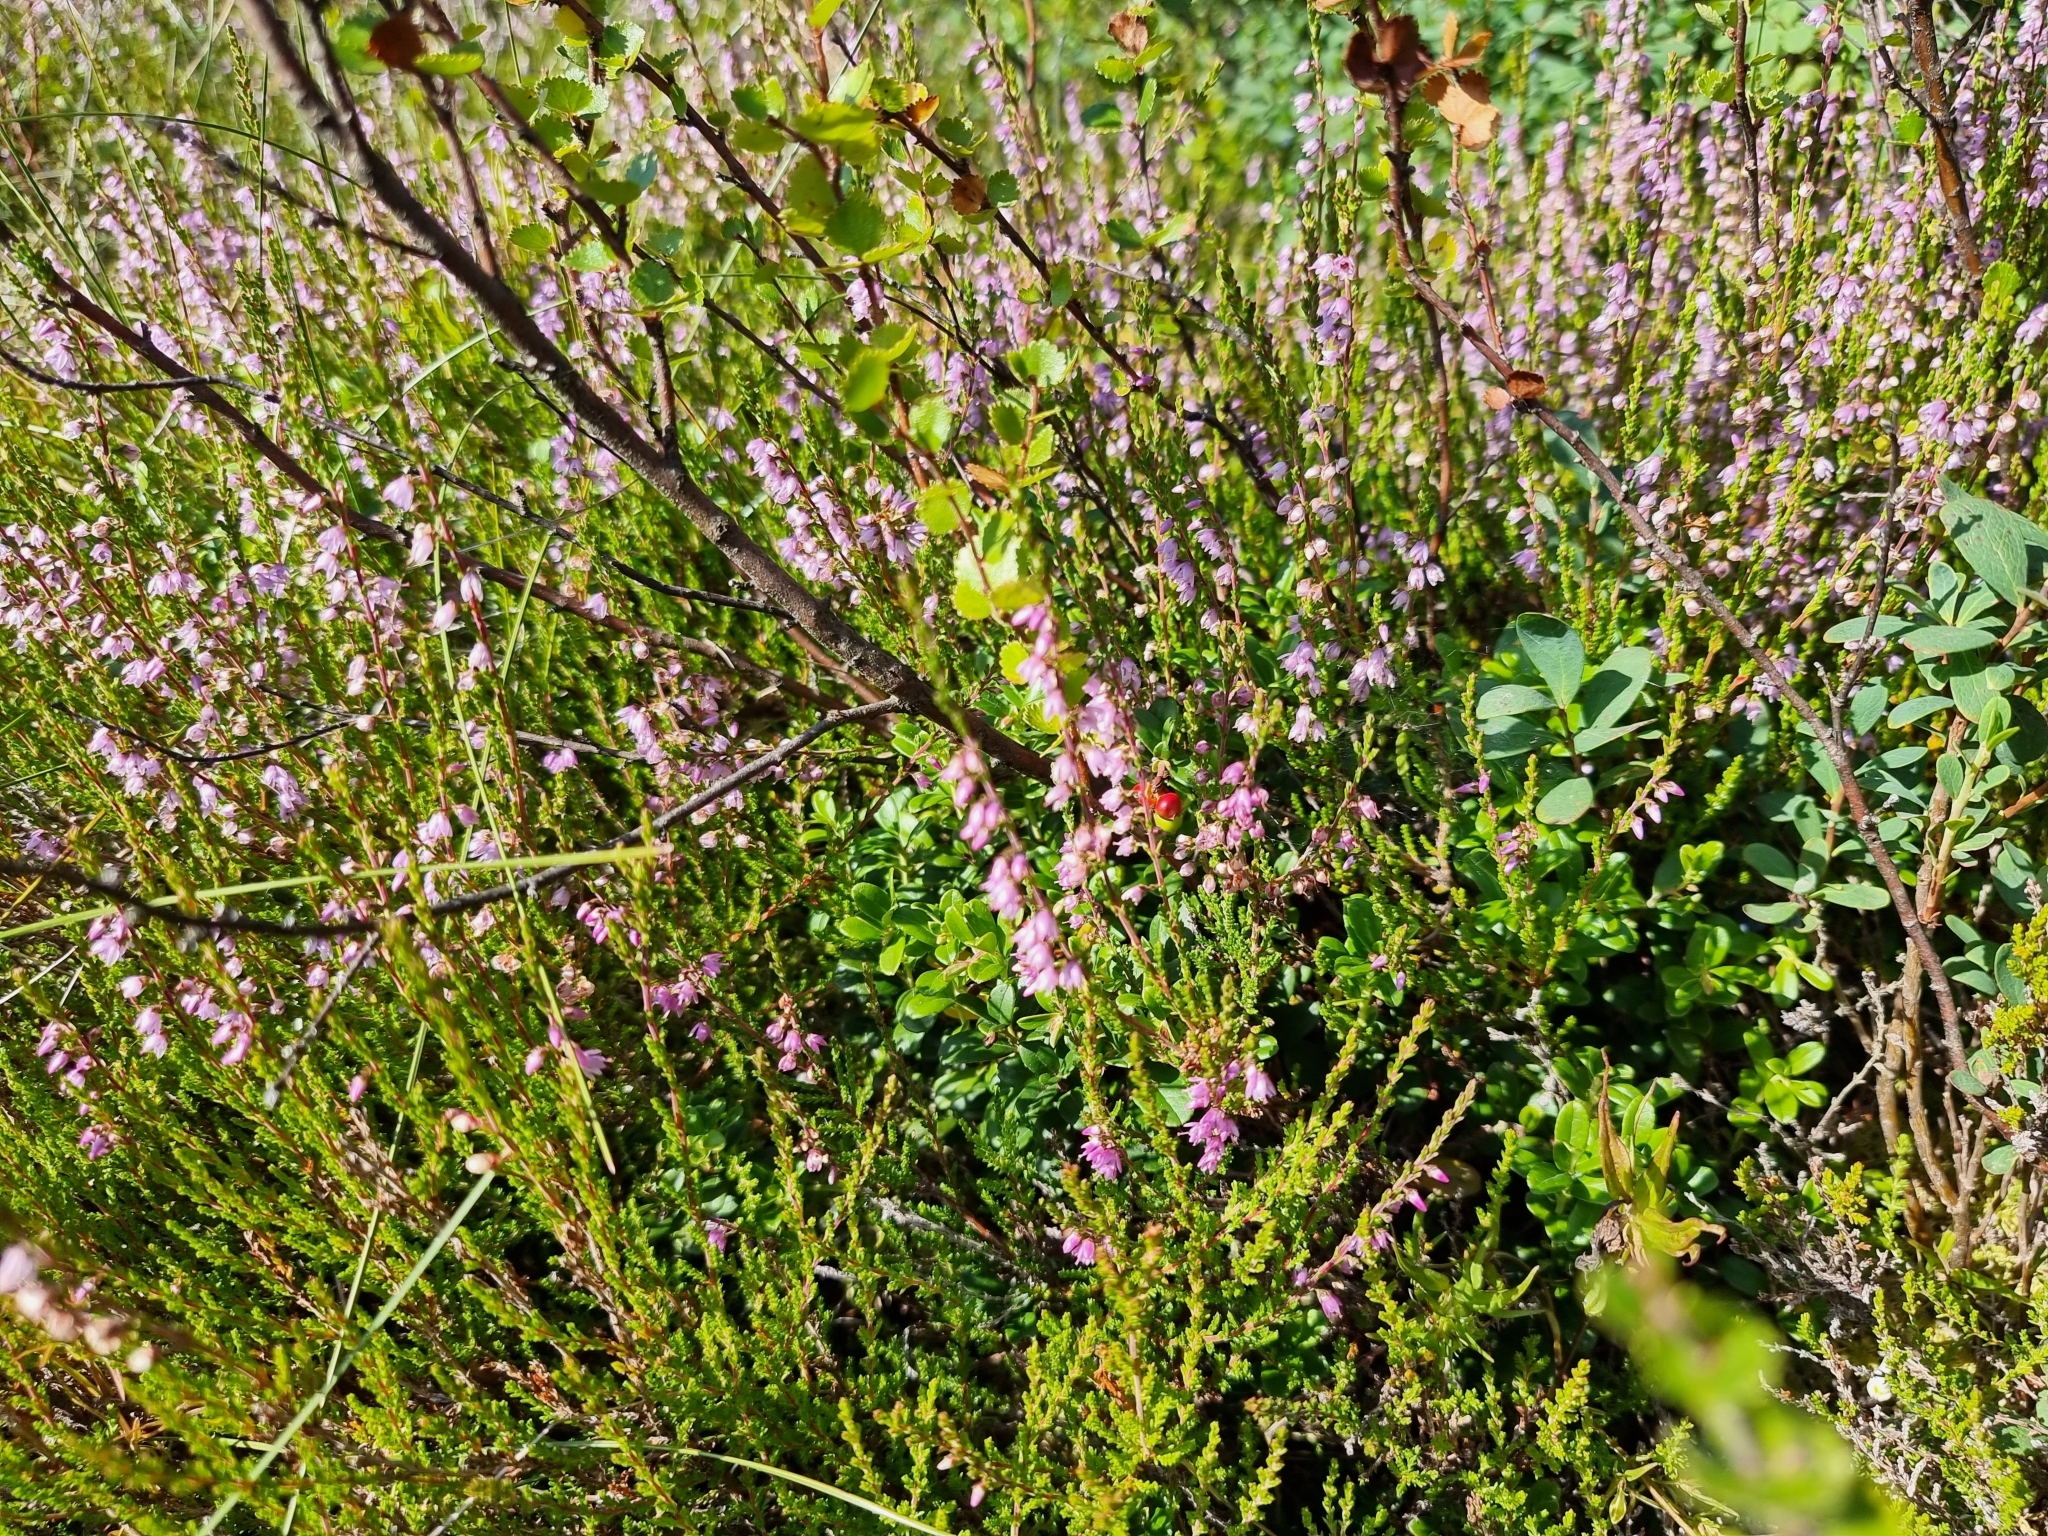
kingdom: Plantae
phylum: Tracheophyta
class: Magnoliopsida
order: Ericales
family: Ericaceae
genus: Calluna
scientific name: Calluna vulgaris
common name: Heather
